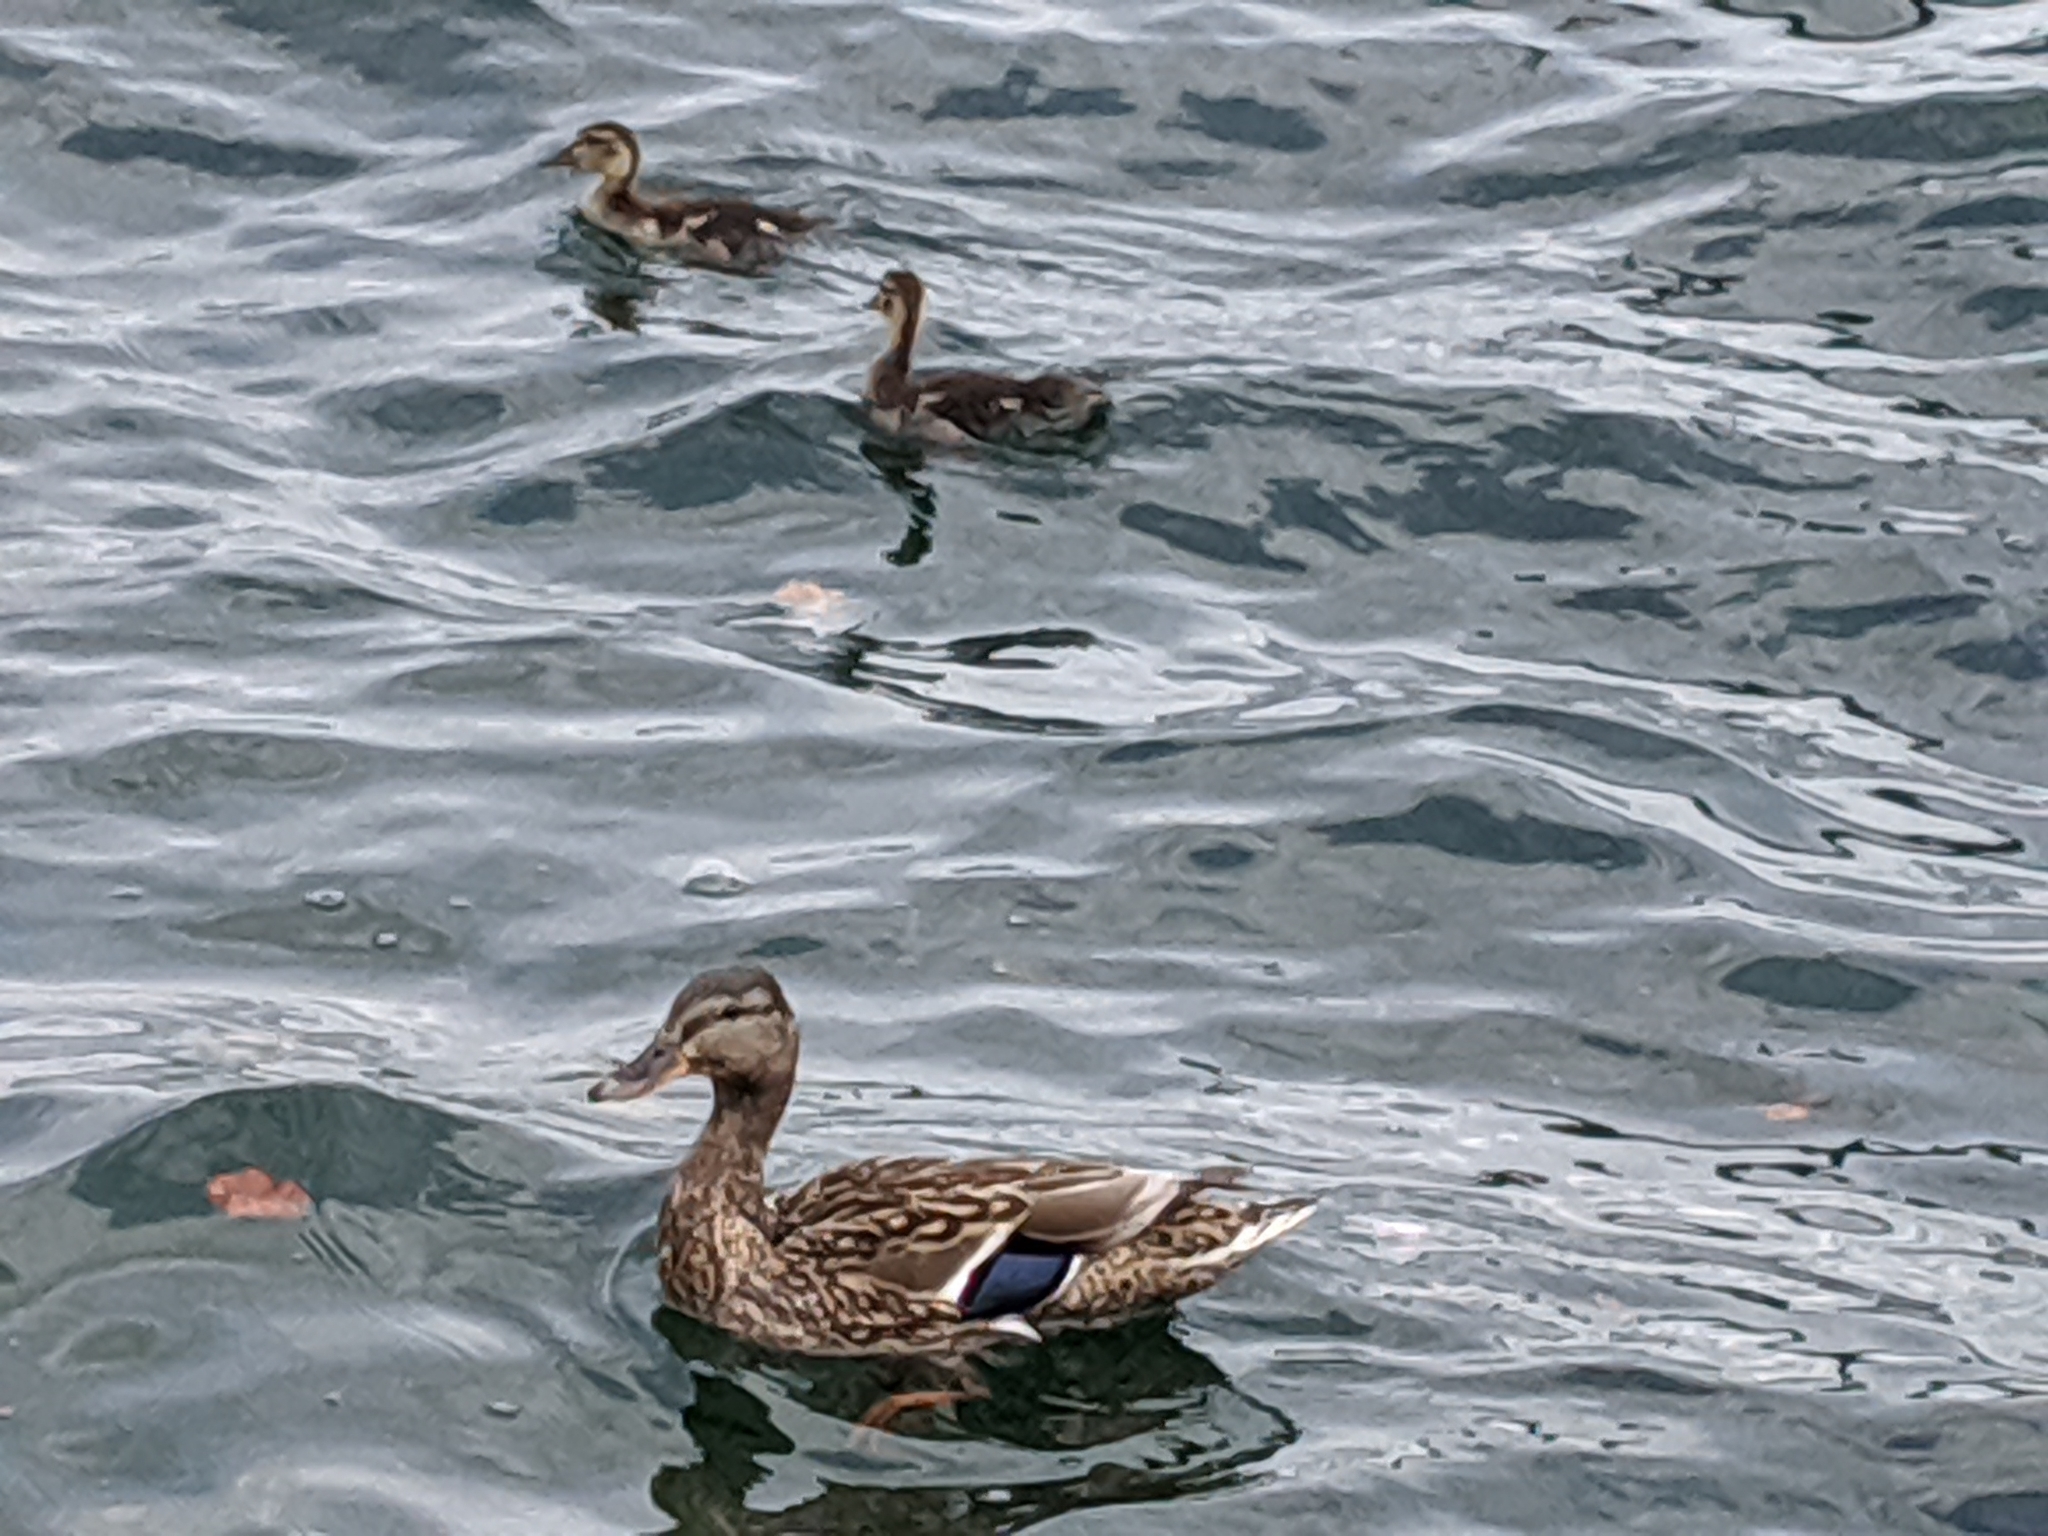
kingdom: Animalia
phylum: Chordata
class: Aves
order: Anseriformes
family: Anatidae
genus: Anas
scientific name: Anas platyrhynchos
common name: Mallard
